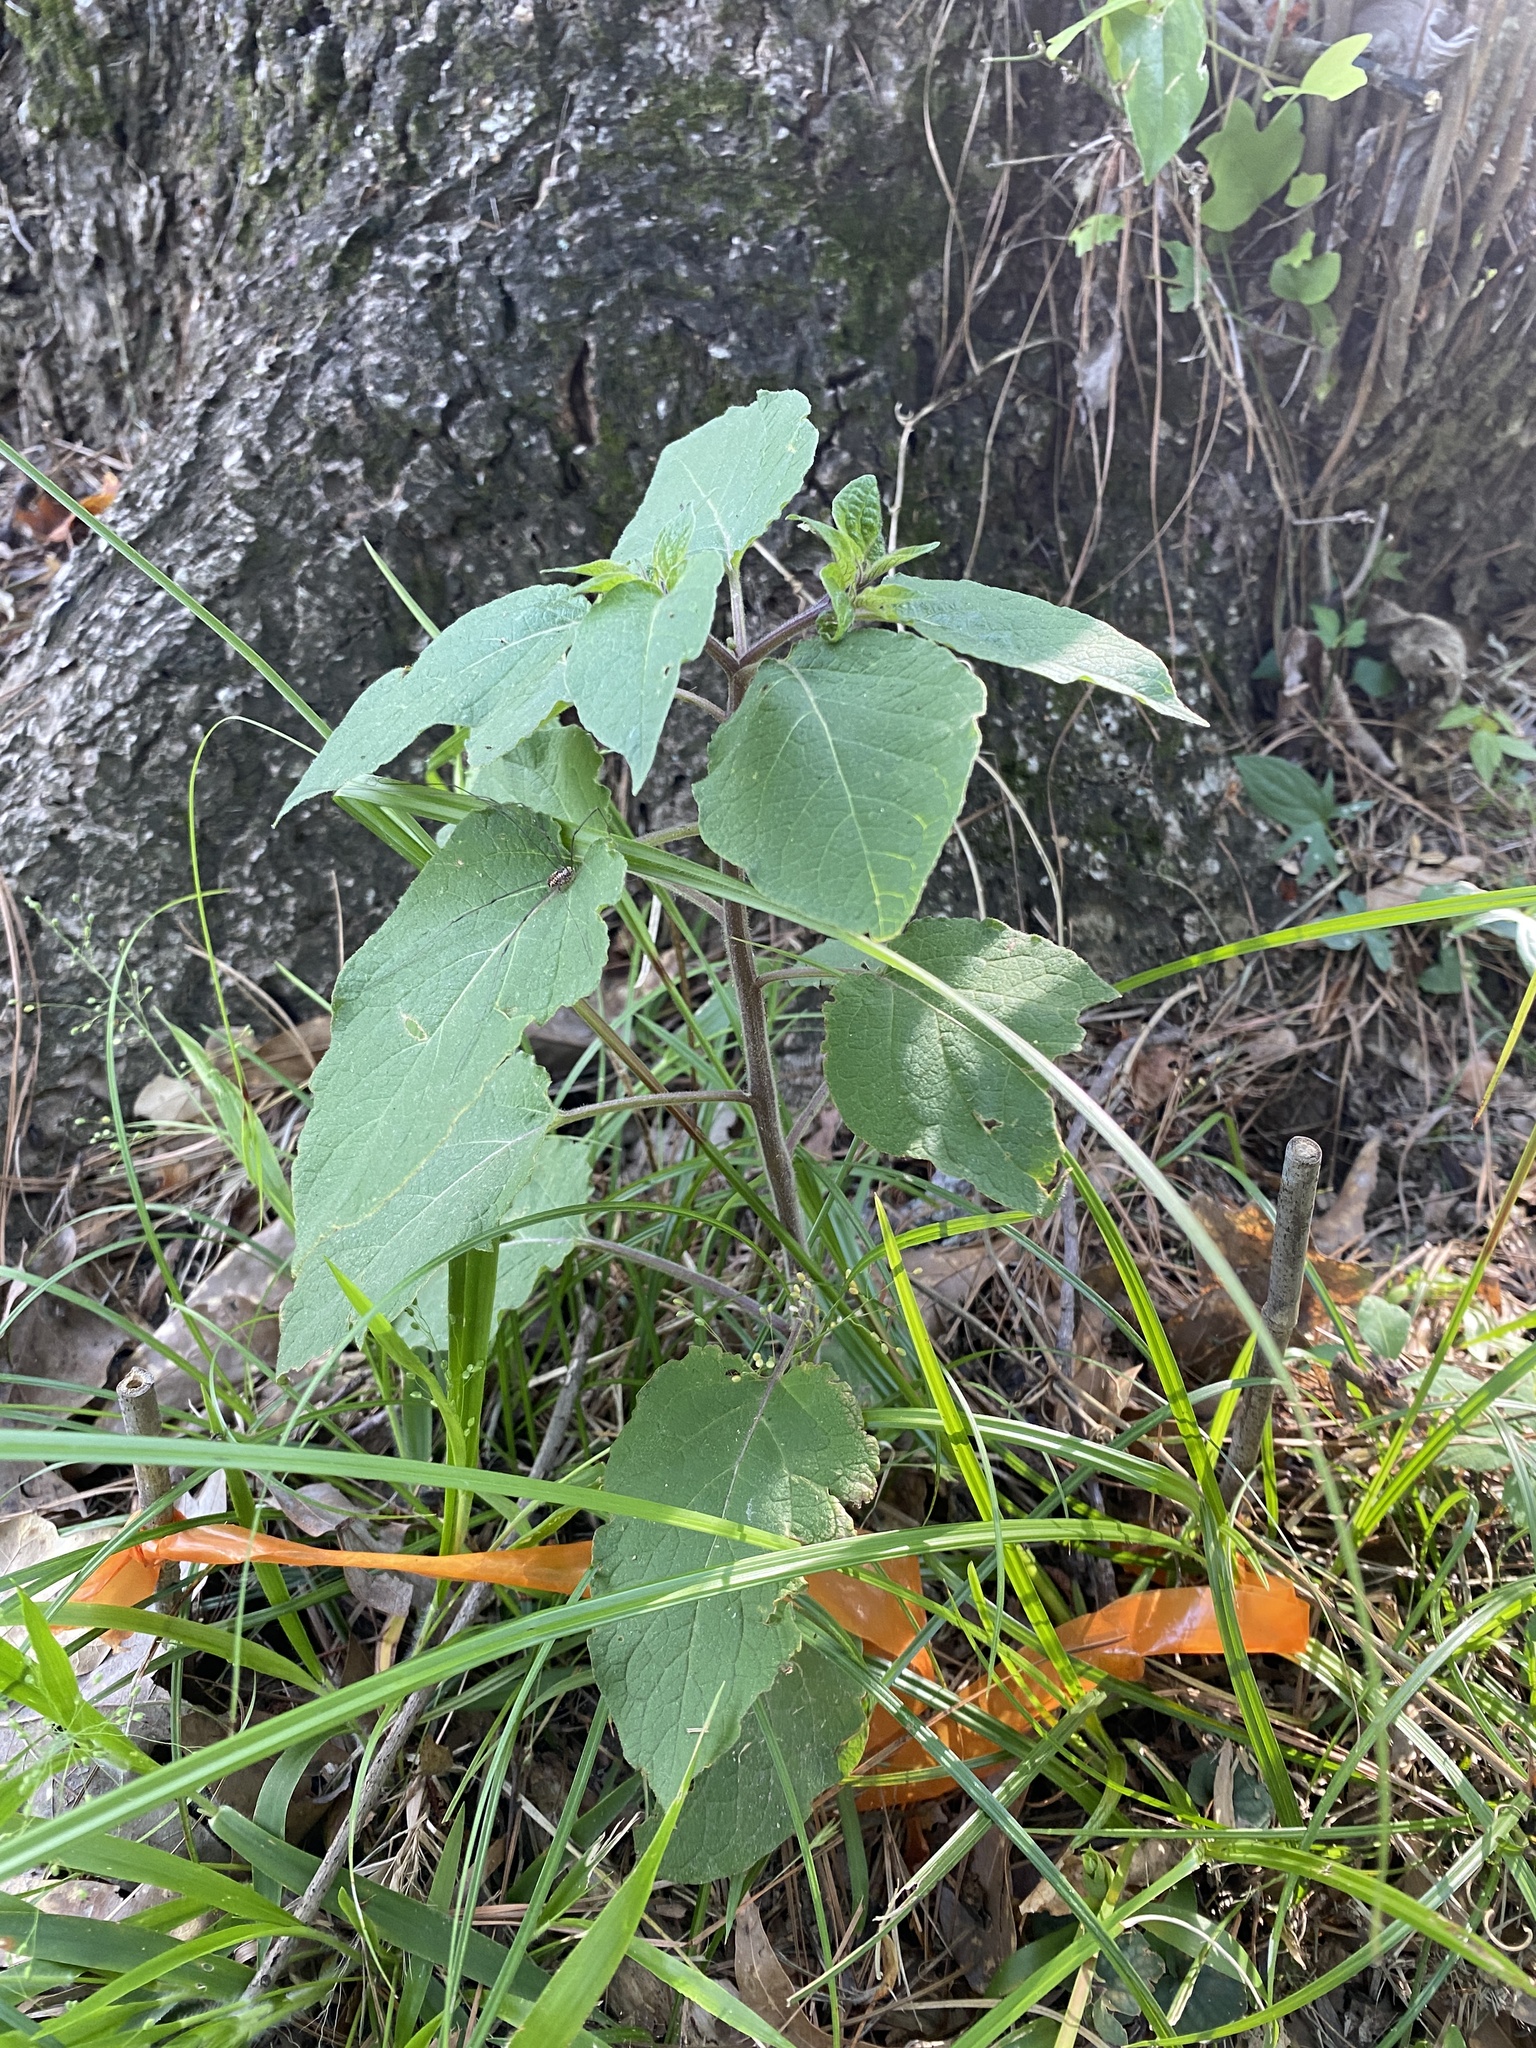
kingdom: Plantae
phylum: Tracheophyta
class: Magnoliopsida
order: Solanales
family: Solanaceae
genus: Calliphysalis
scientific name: Calliphysalis carpenteri
